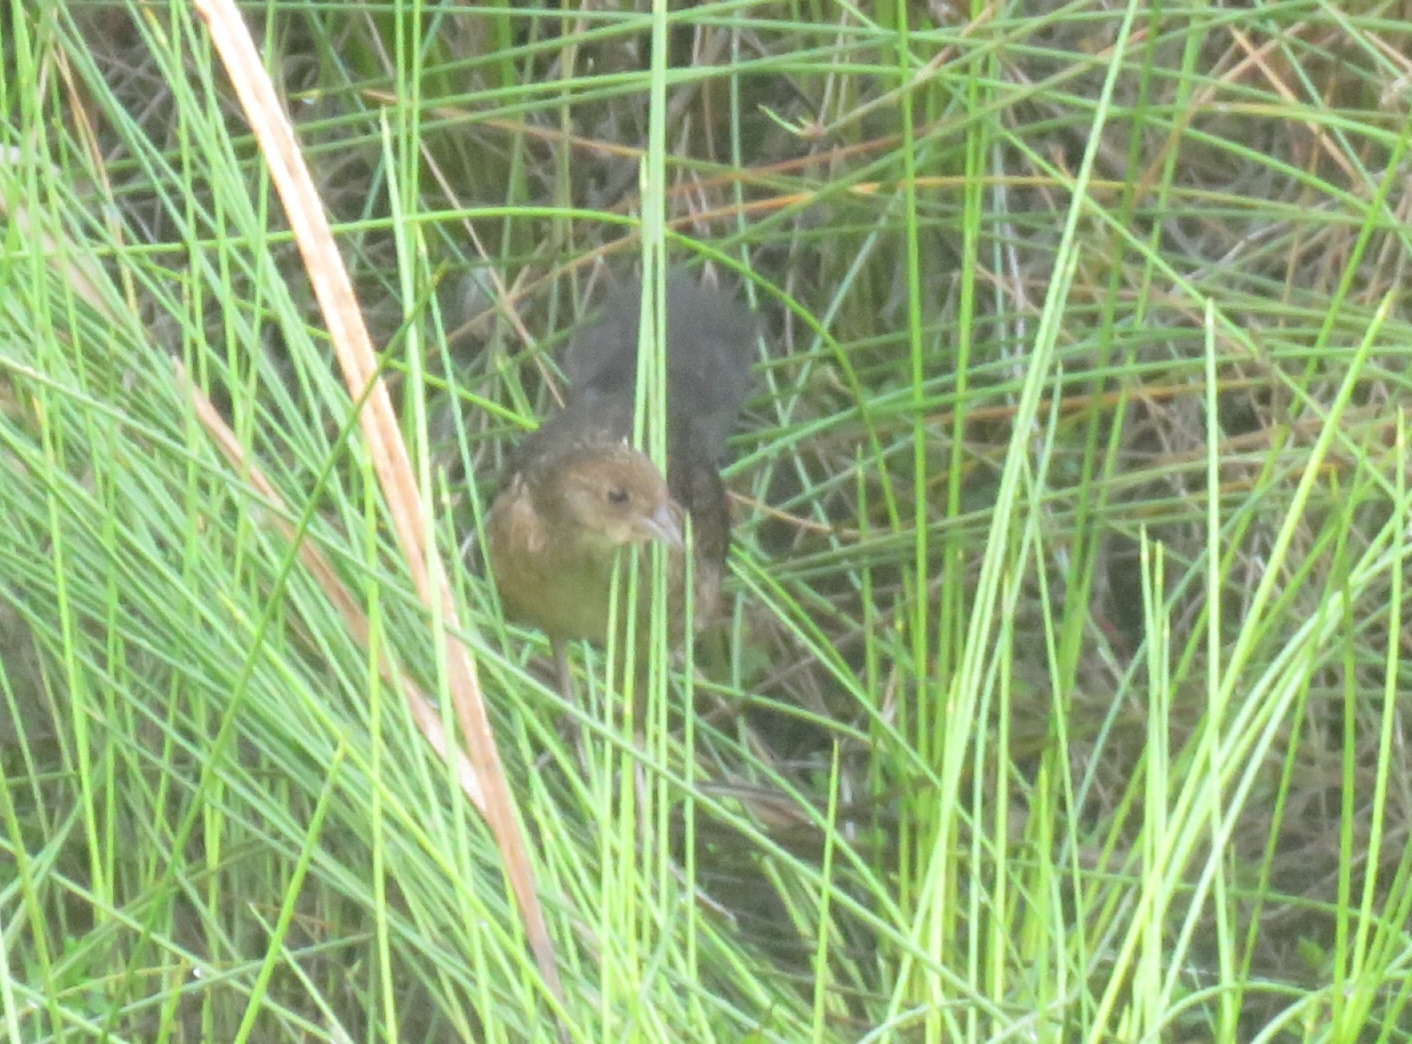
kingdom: Animalia
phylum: Chordata
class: Aves
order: Gruiformes
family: Rallidae
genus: Sarothrura
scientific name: Sarothrura rufa
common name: Red-chested flufftail
